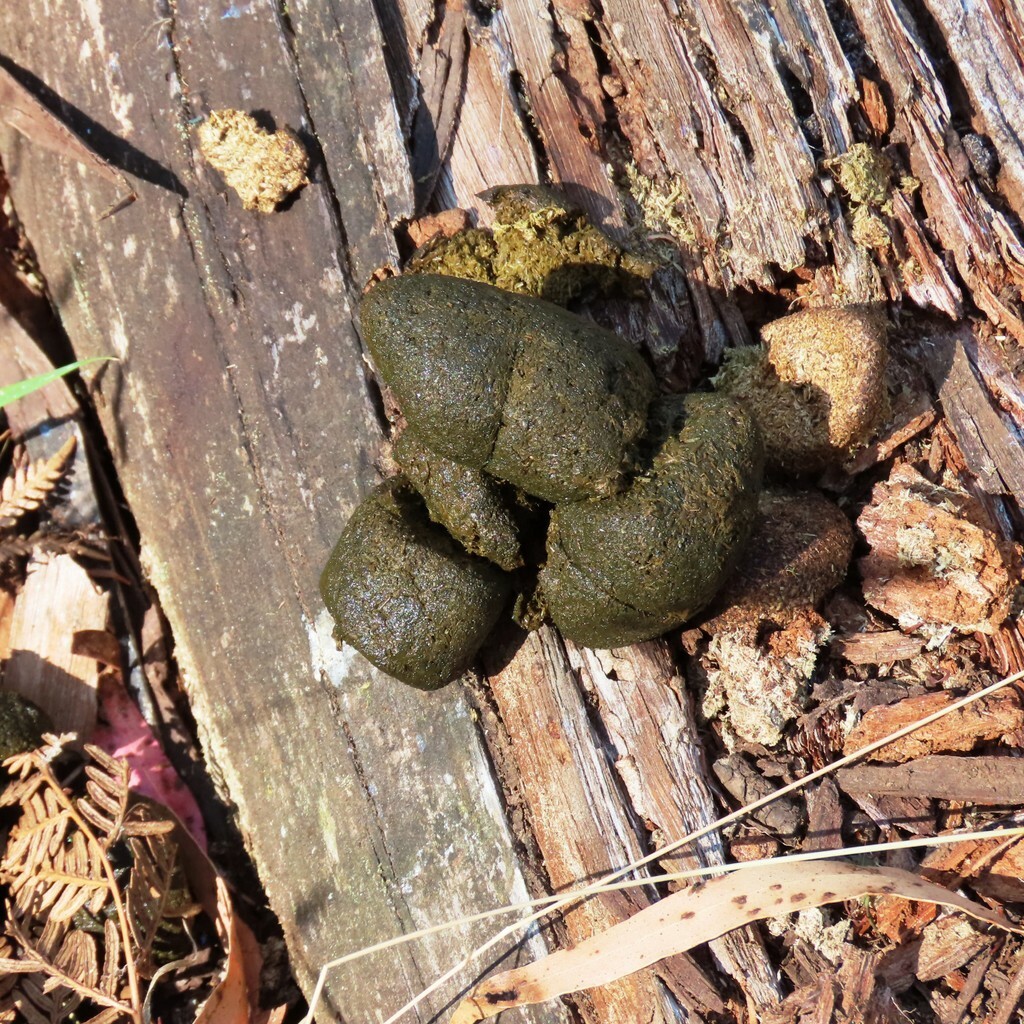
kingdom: Animalia
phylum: Chordata
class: Mammalia
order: Diprotodontia
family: Vombatidae
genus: Vombatus
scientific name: Vombatus ursinus
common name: Common wombat
